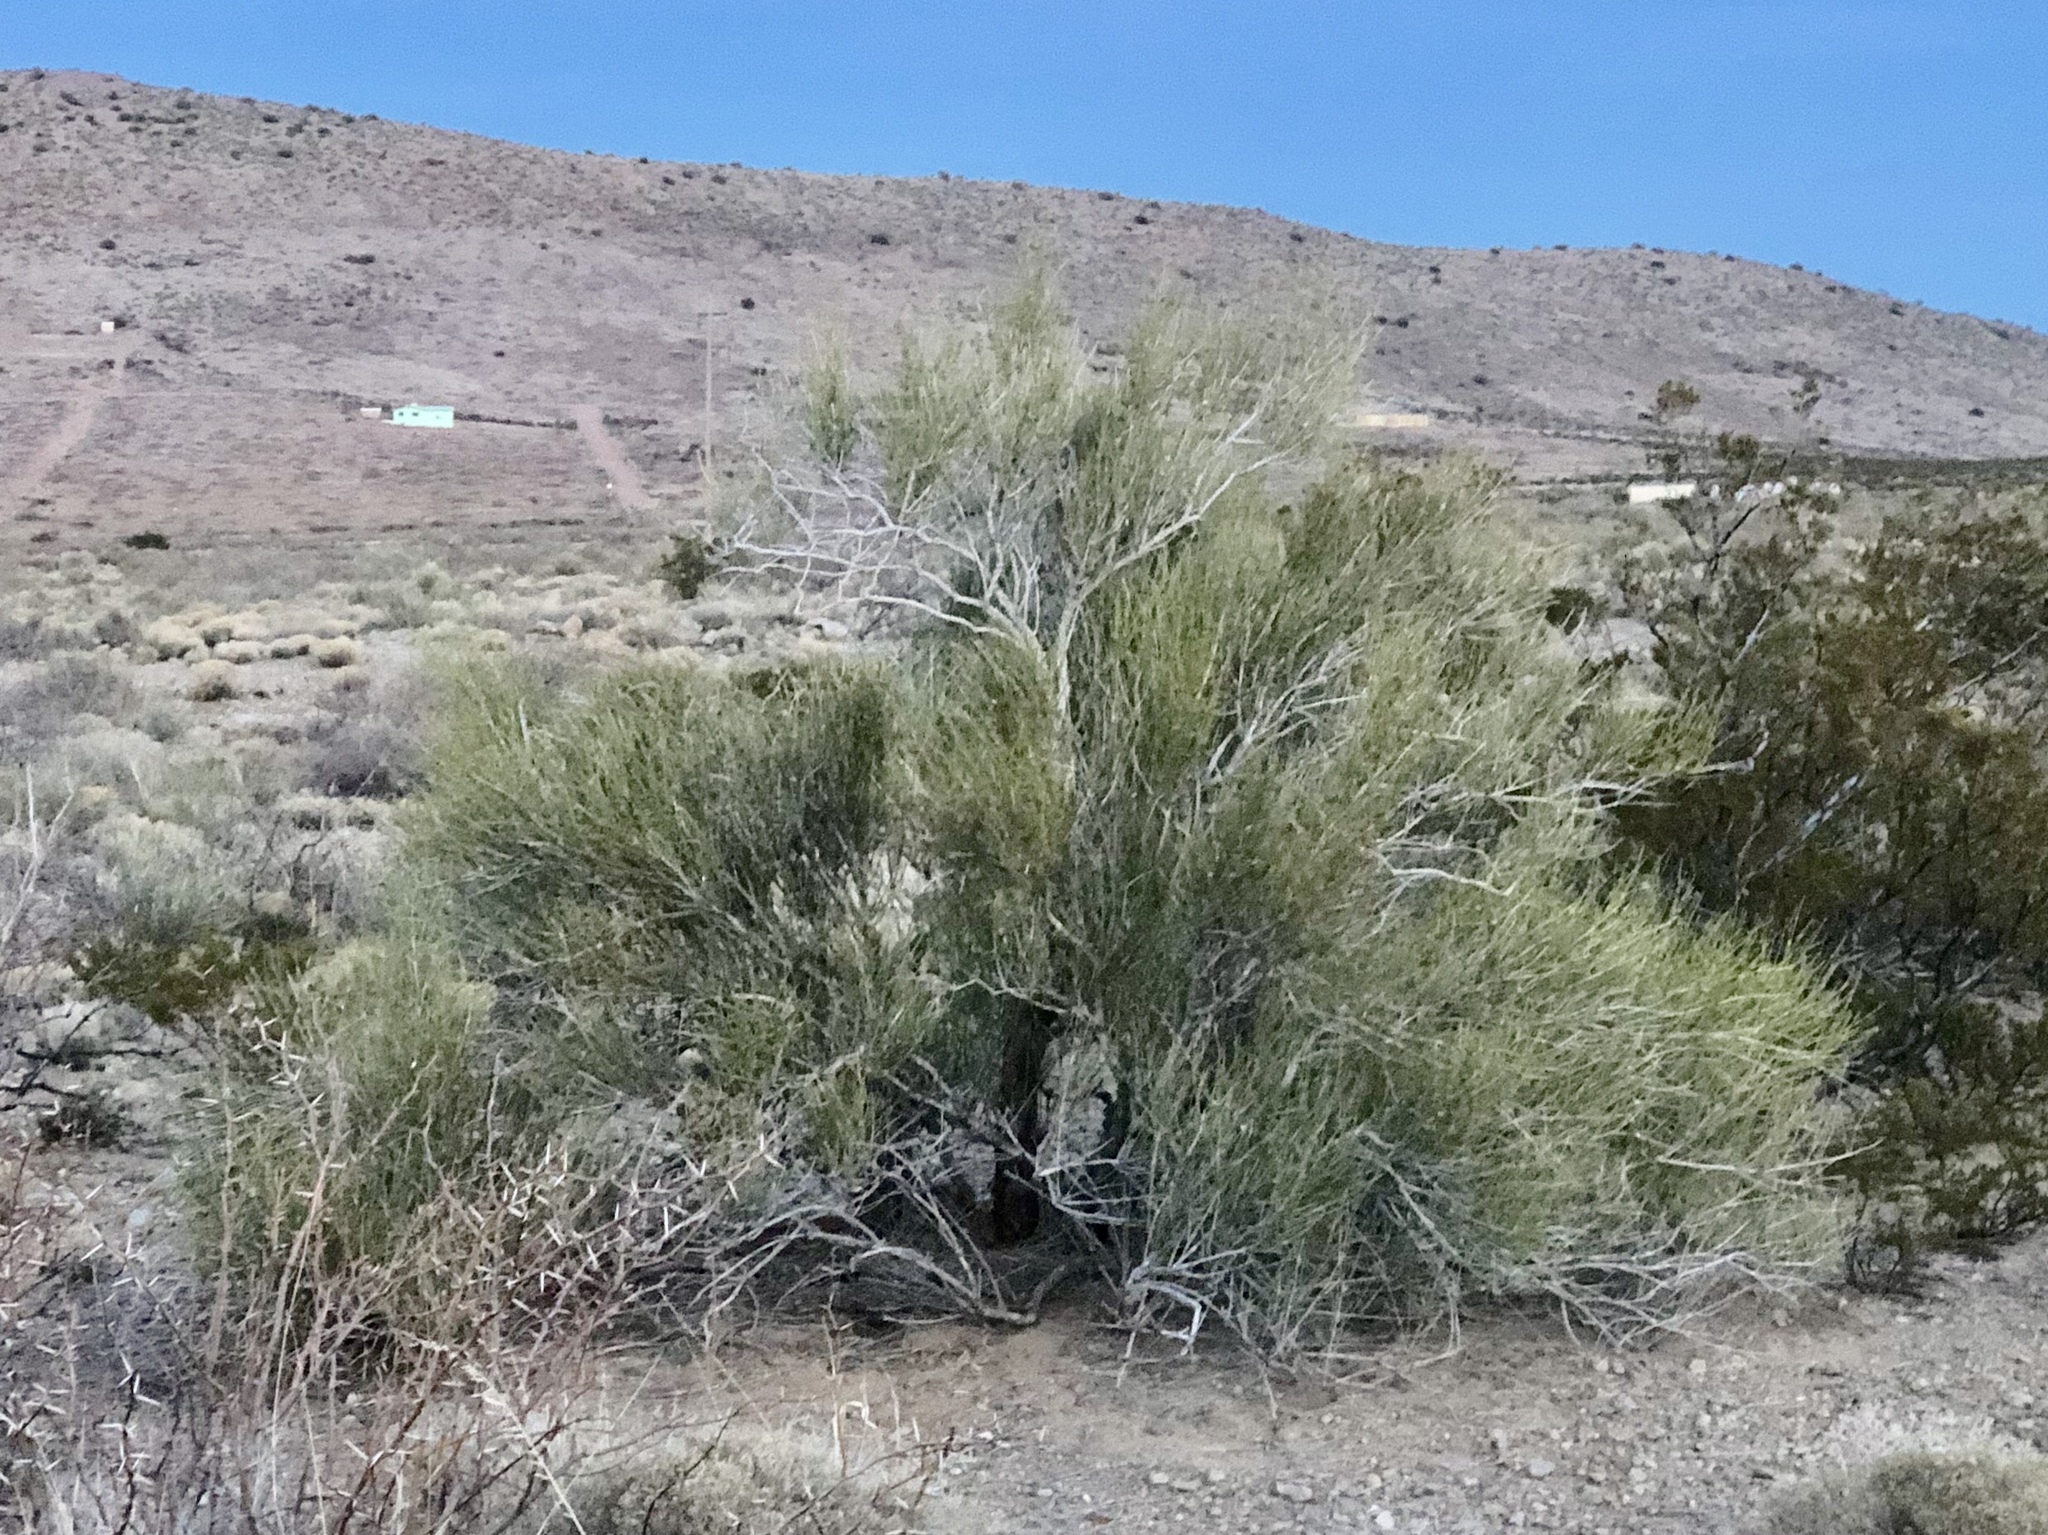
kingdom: Plantae
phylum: Tracheophyta
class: Gnetopsida
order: Ephedrales
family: Ephedraceae
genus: Ephedra
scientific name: Ephedra trifurca
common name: Mexican-tea
